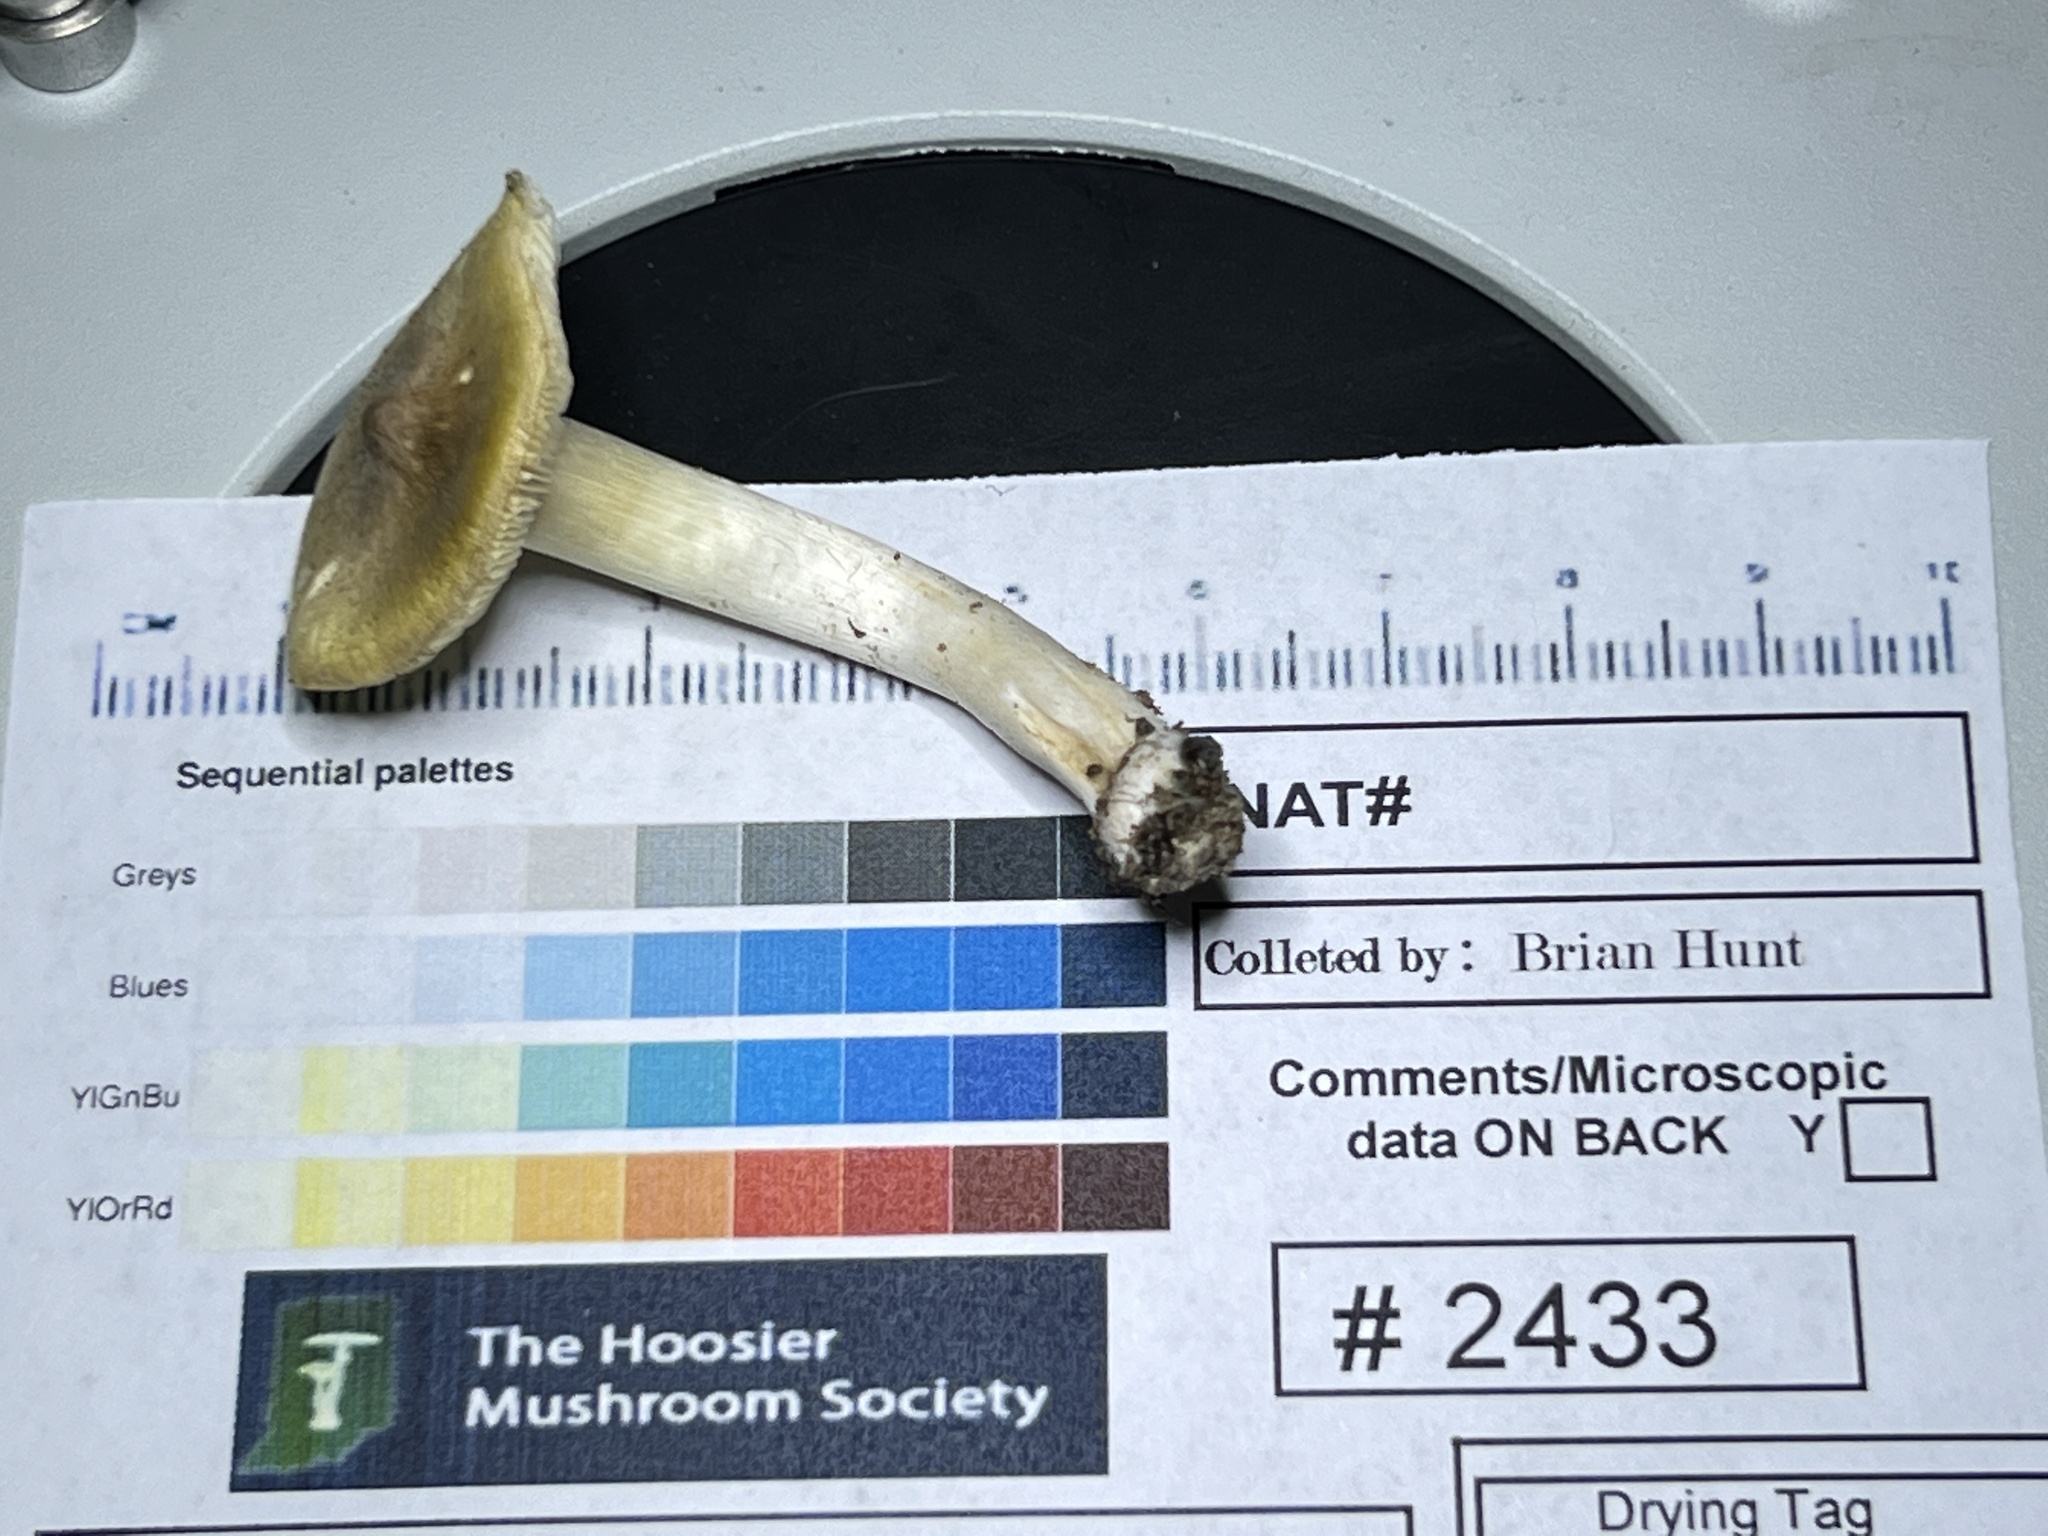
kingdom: Fungi
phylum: Basidiomycota
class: Agaricomycetes
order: Agaricales
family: Tricholomataceae
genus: Tricholoma
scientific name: Tricholoma subaureum
